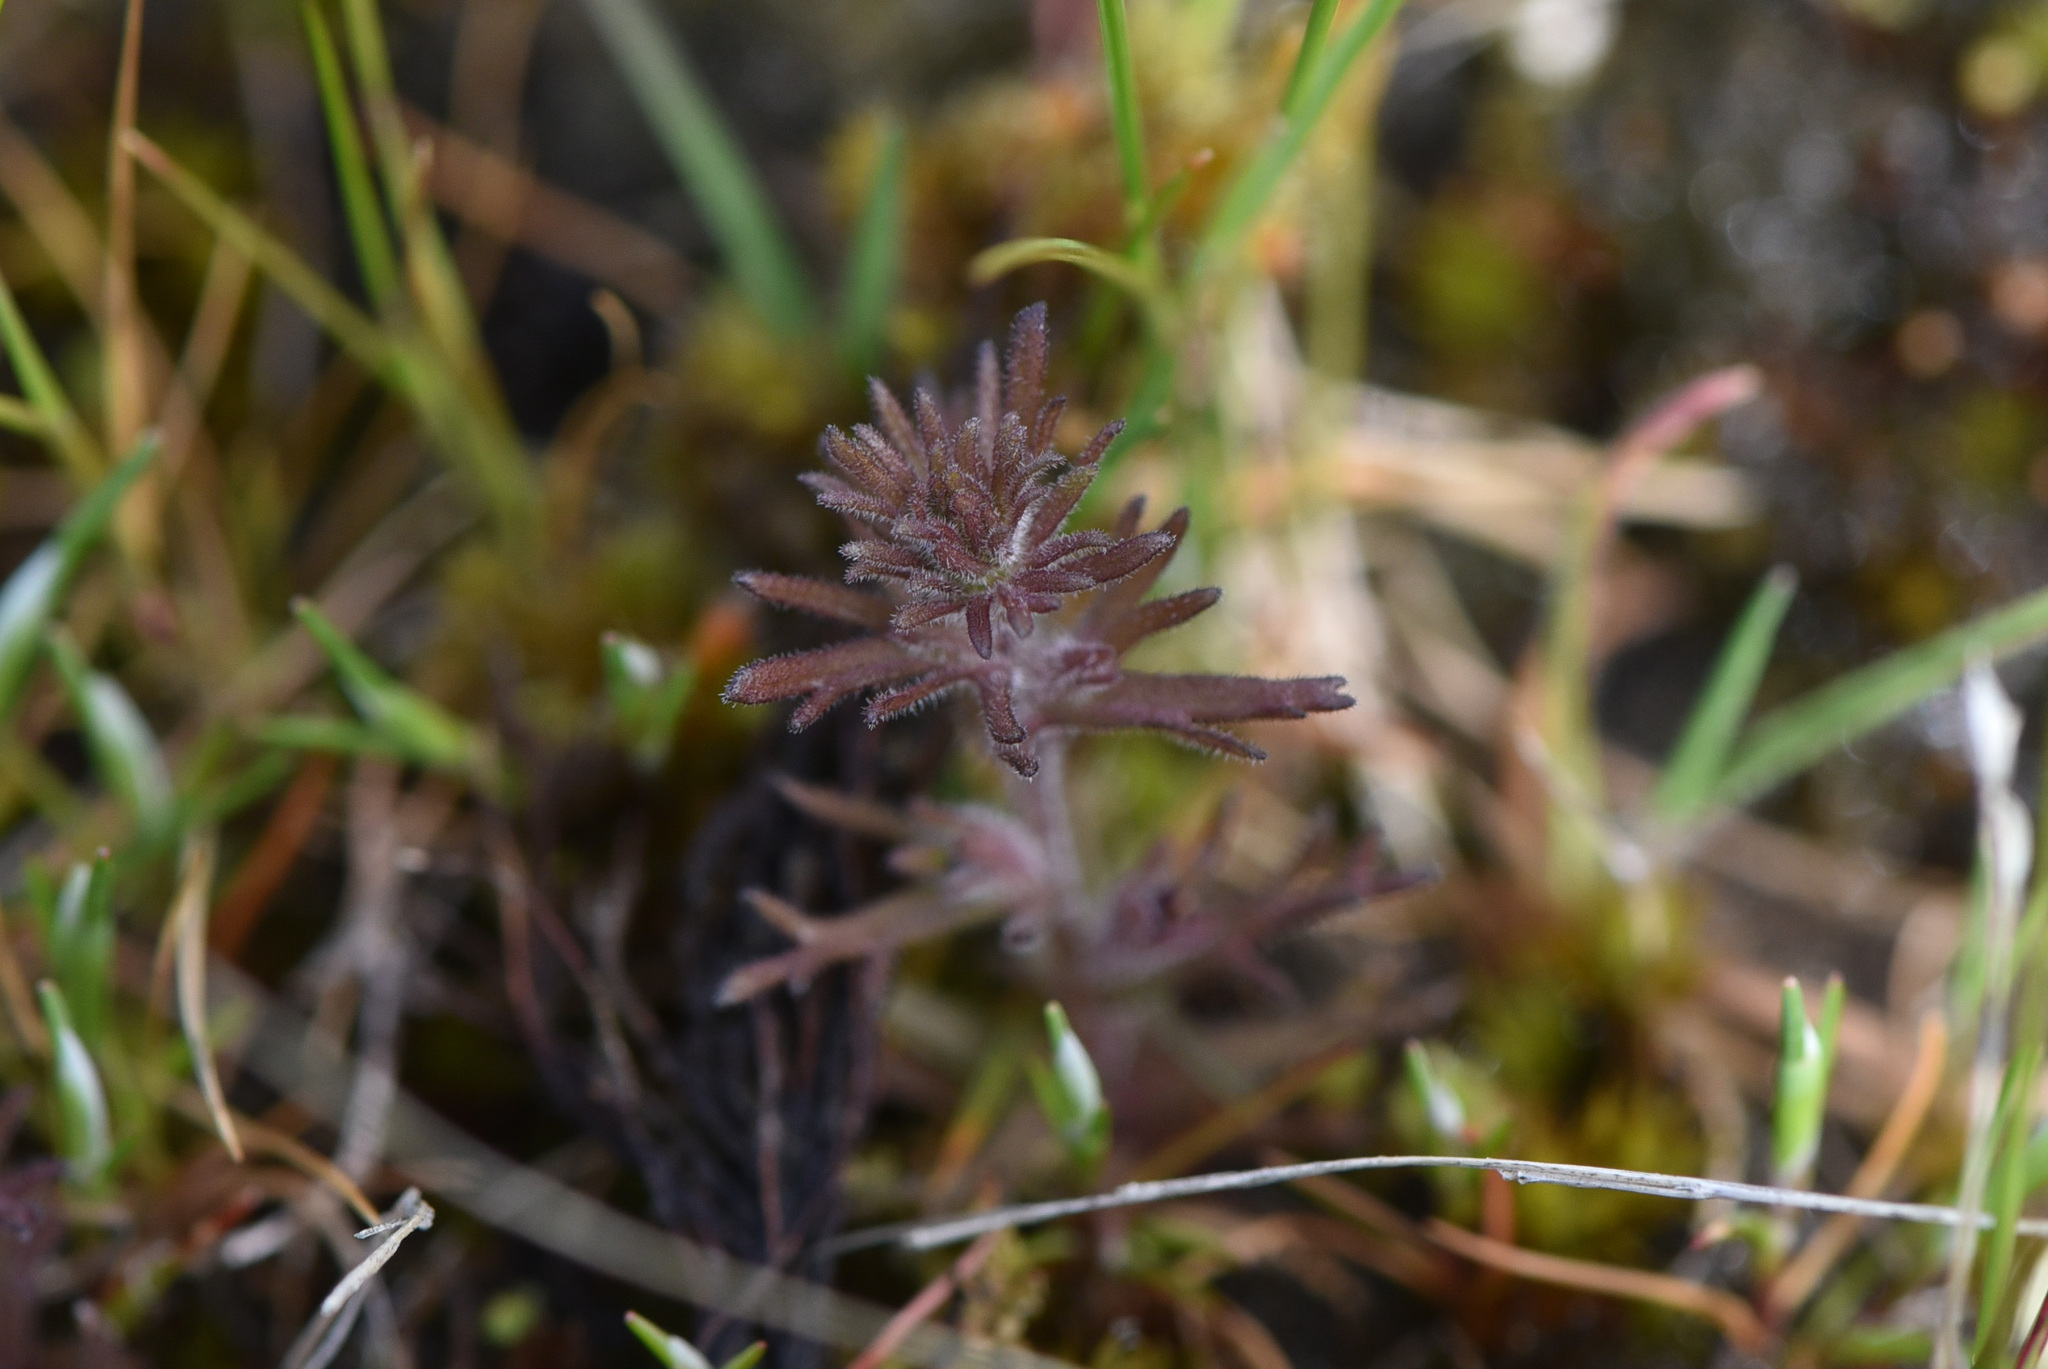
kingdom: Plantae
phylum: Tracheophyta
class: Magnoliopsida
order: Lamiales
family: Orobanchaceae
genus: Triphysaria
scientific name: Triphysaria pusilla
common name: Dwarf false owl-clover
